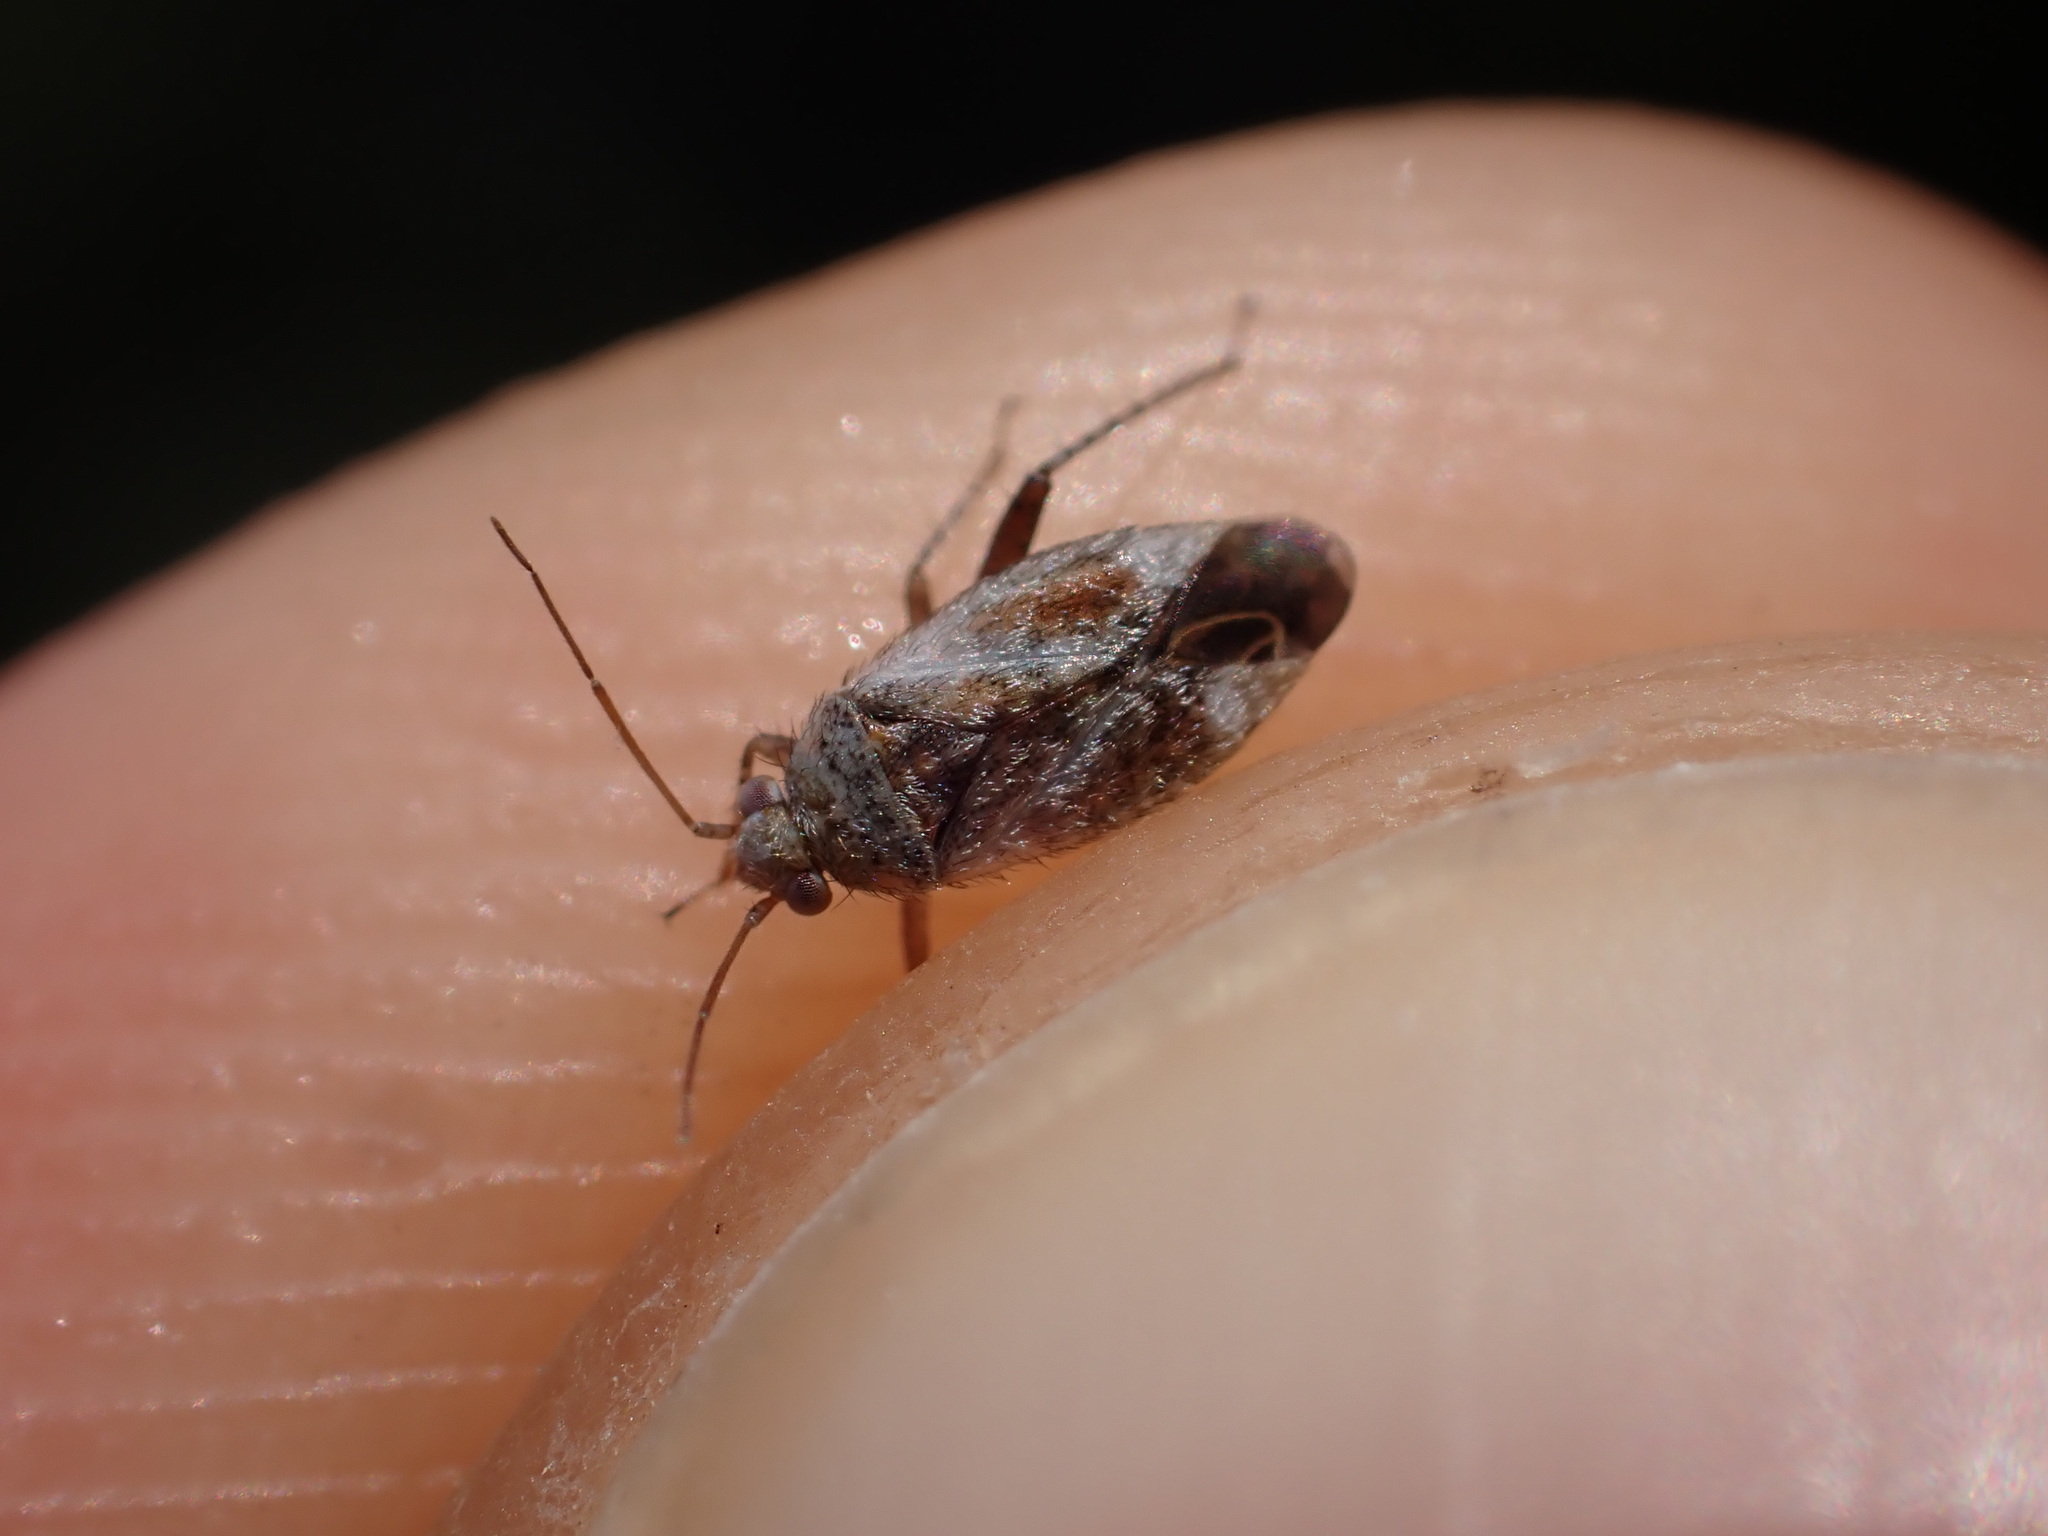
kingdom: Animalia
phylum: Arthropoda
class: Insecta
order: Hemiptera
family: Miridae
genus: Compsidolon
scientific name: Compsidolon crotchi
